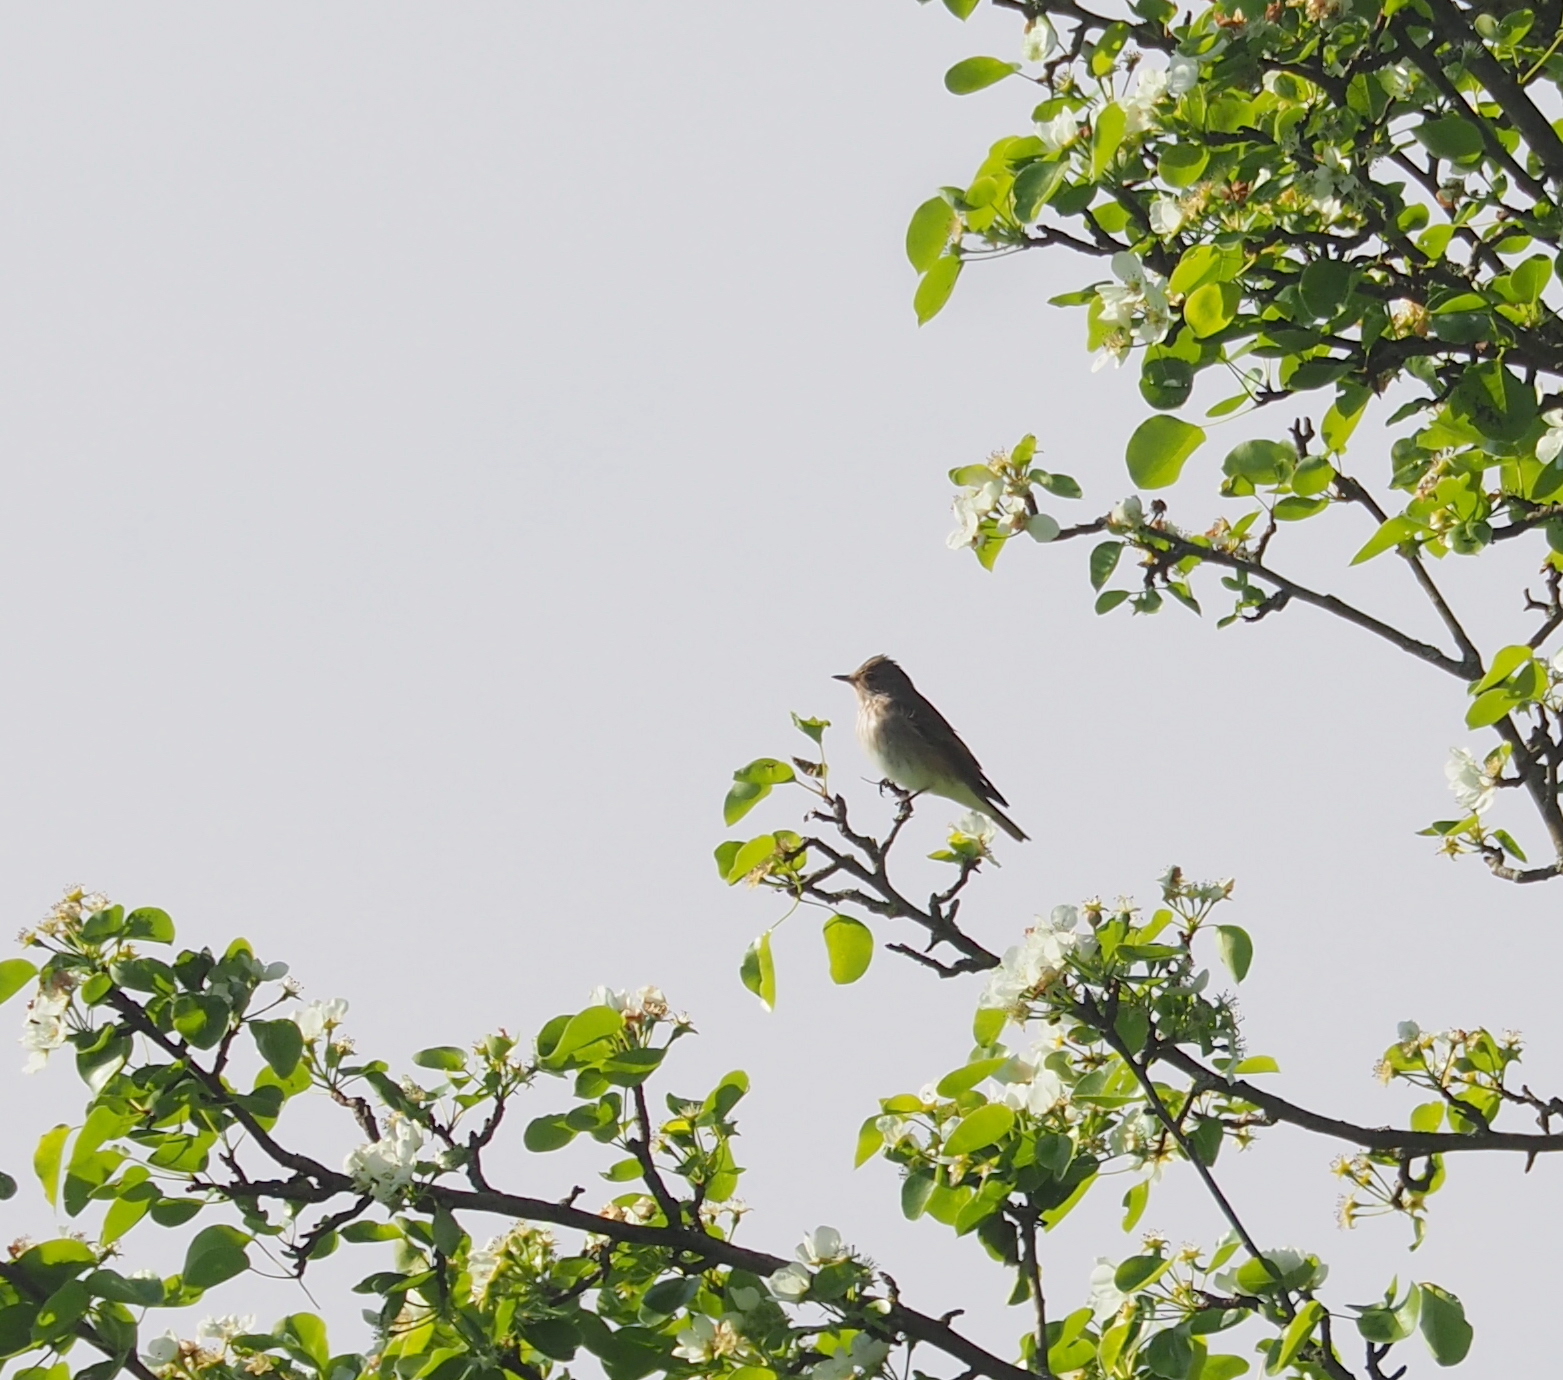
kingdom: Animalia
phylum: Chordata
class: Aves
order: Passeriformes
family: Muscicapidae
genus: Muscicapa
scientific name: Muscicapa striata
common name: Spotted flycatcher
